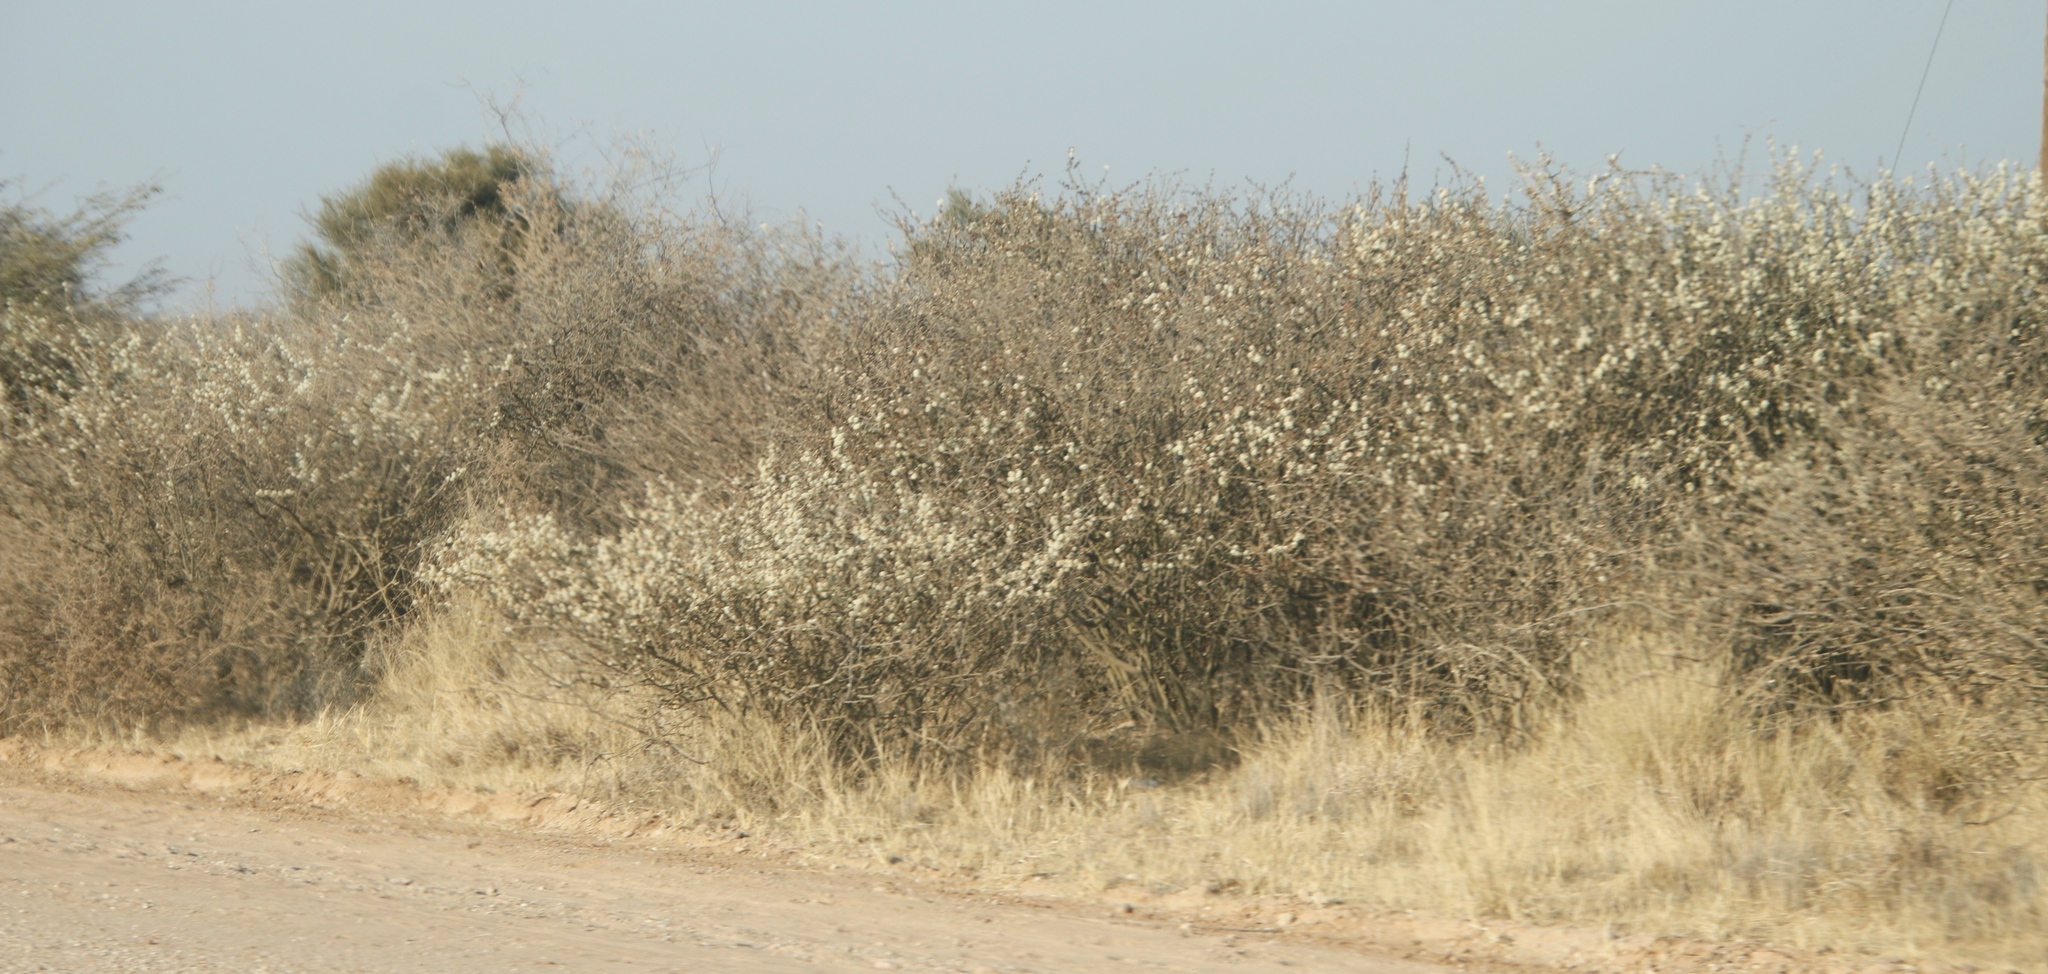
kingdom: Plantae
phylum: Tracheophyta
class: Magnoliopsida
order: Fabales
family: Fabaceae
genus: Senegalia
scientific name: Senegalia mellifera
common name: Hookthorn
